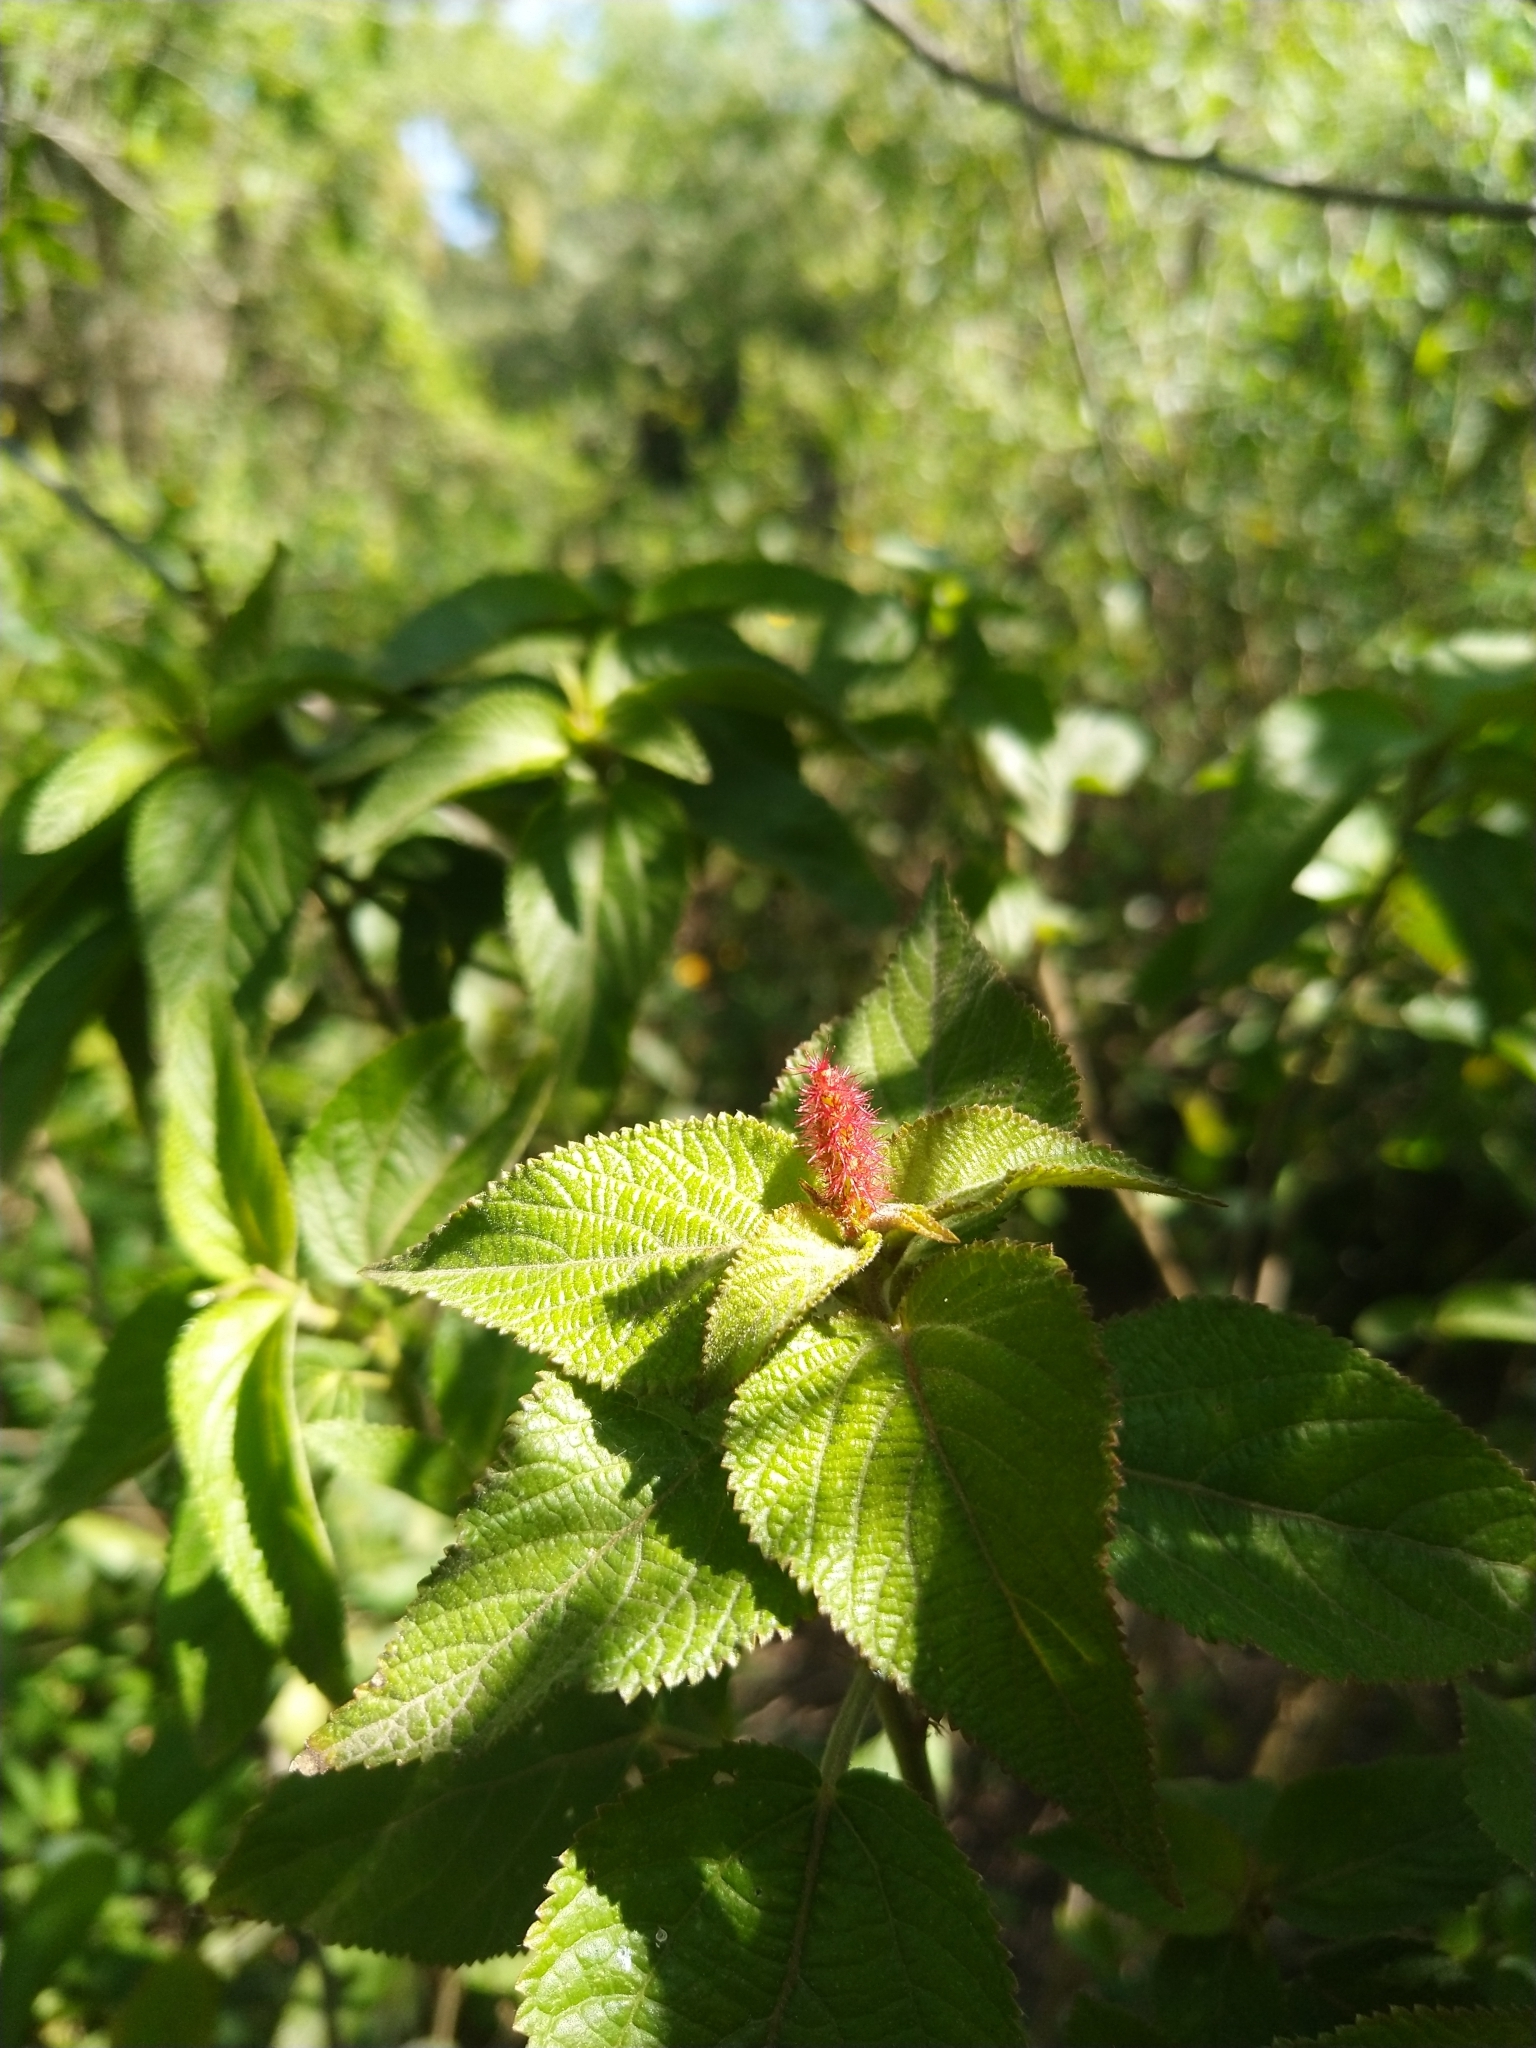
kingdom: Plantae
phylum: Tracheophyta
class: Magnoliopsida
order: Malpighiales
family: Euphorbiaceae
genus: Acalypha
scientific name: Acalypha communis
